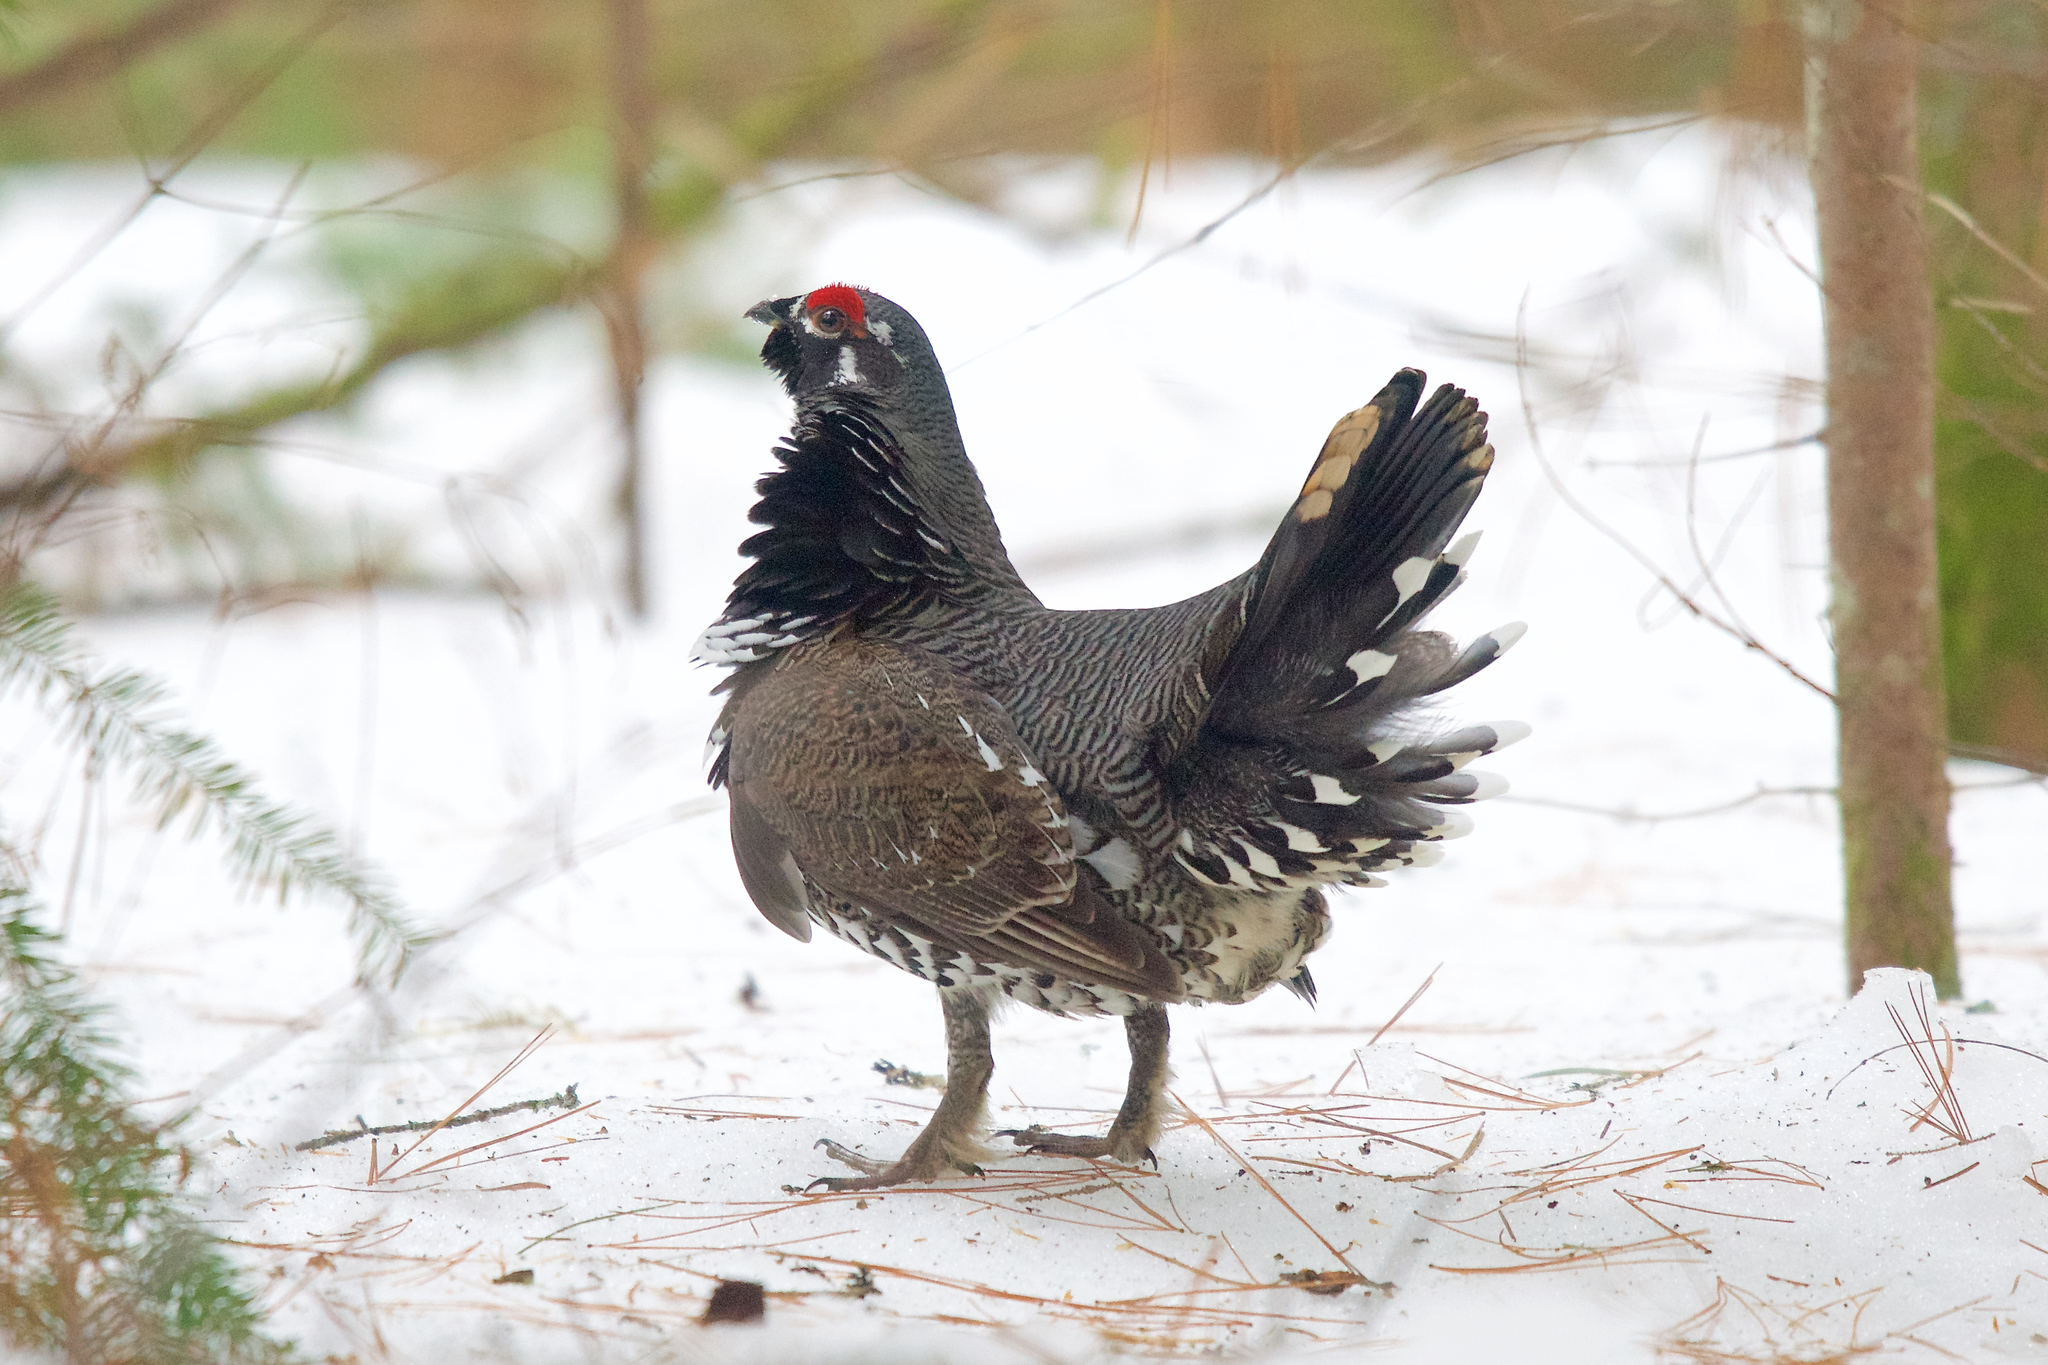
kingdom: Animalia
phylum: Chordata
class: Aves
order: Galliformes
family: Phasianidae
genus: Canachites
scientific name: Canachites canadensis
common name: Spruce grouse
